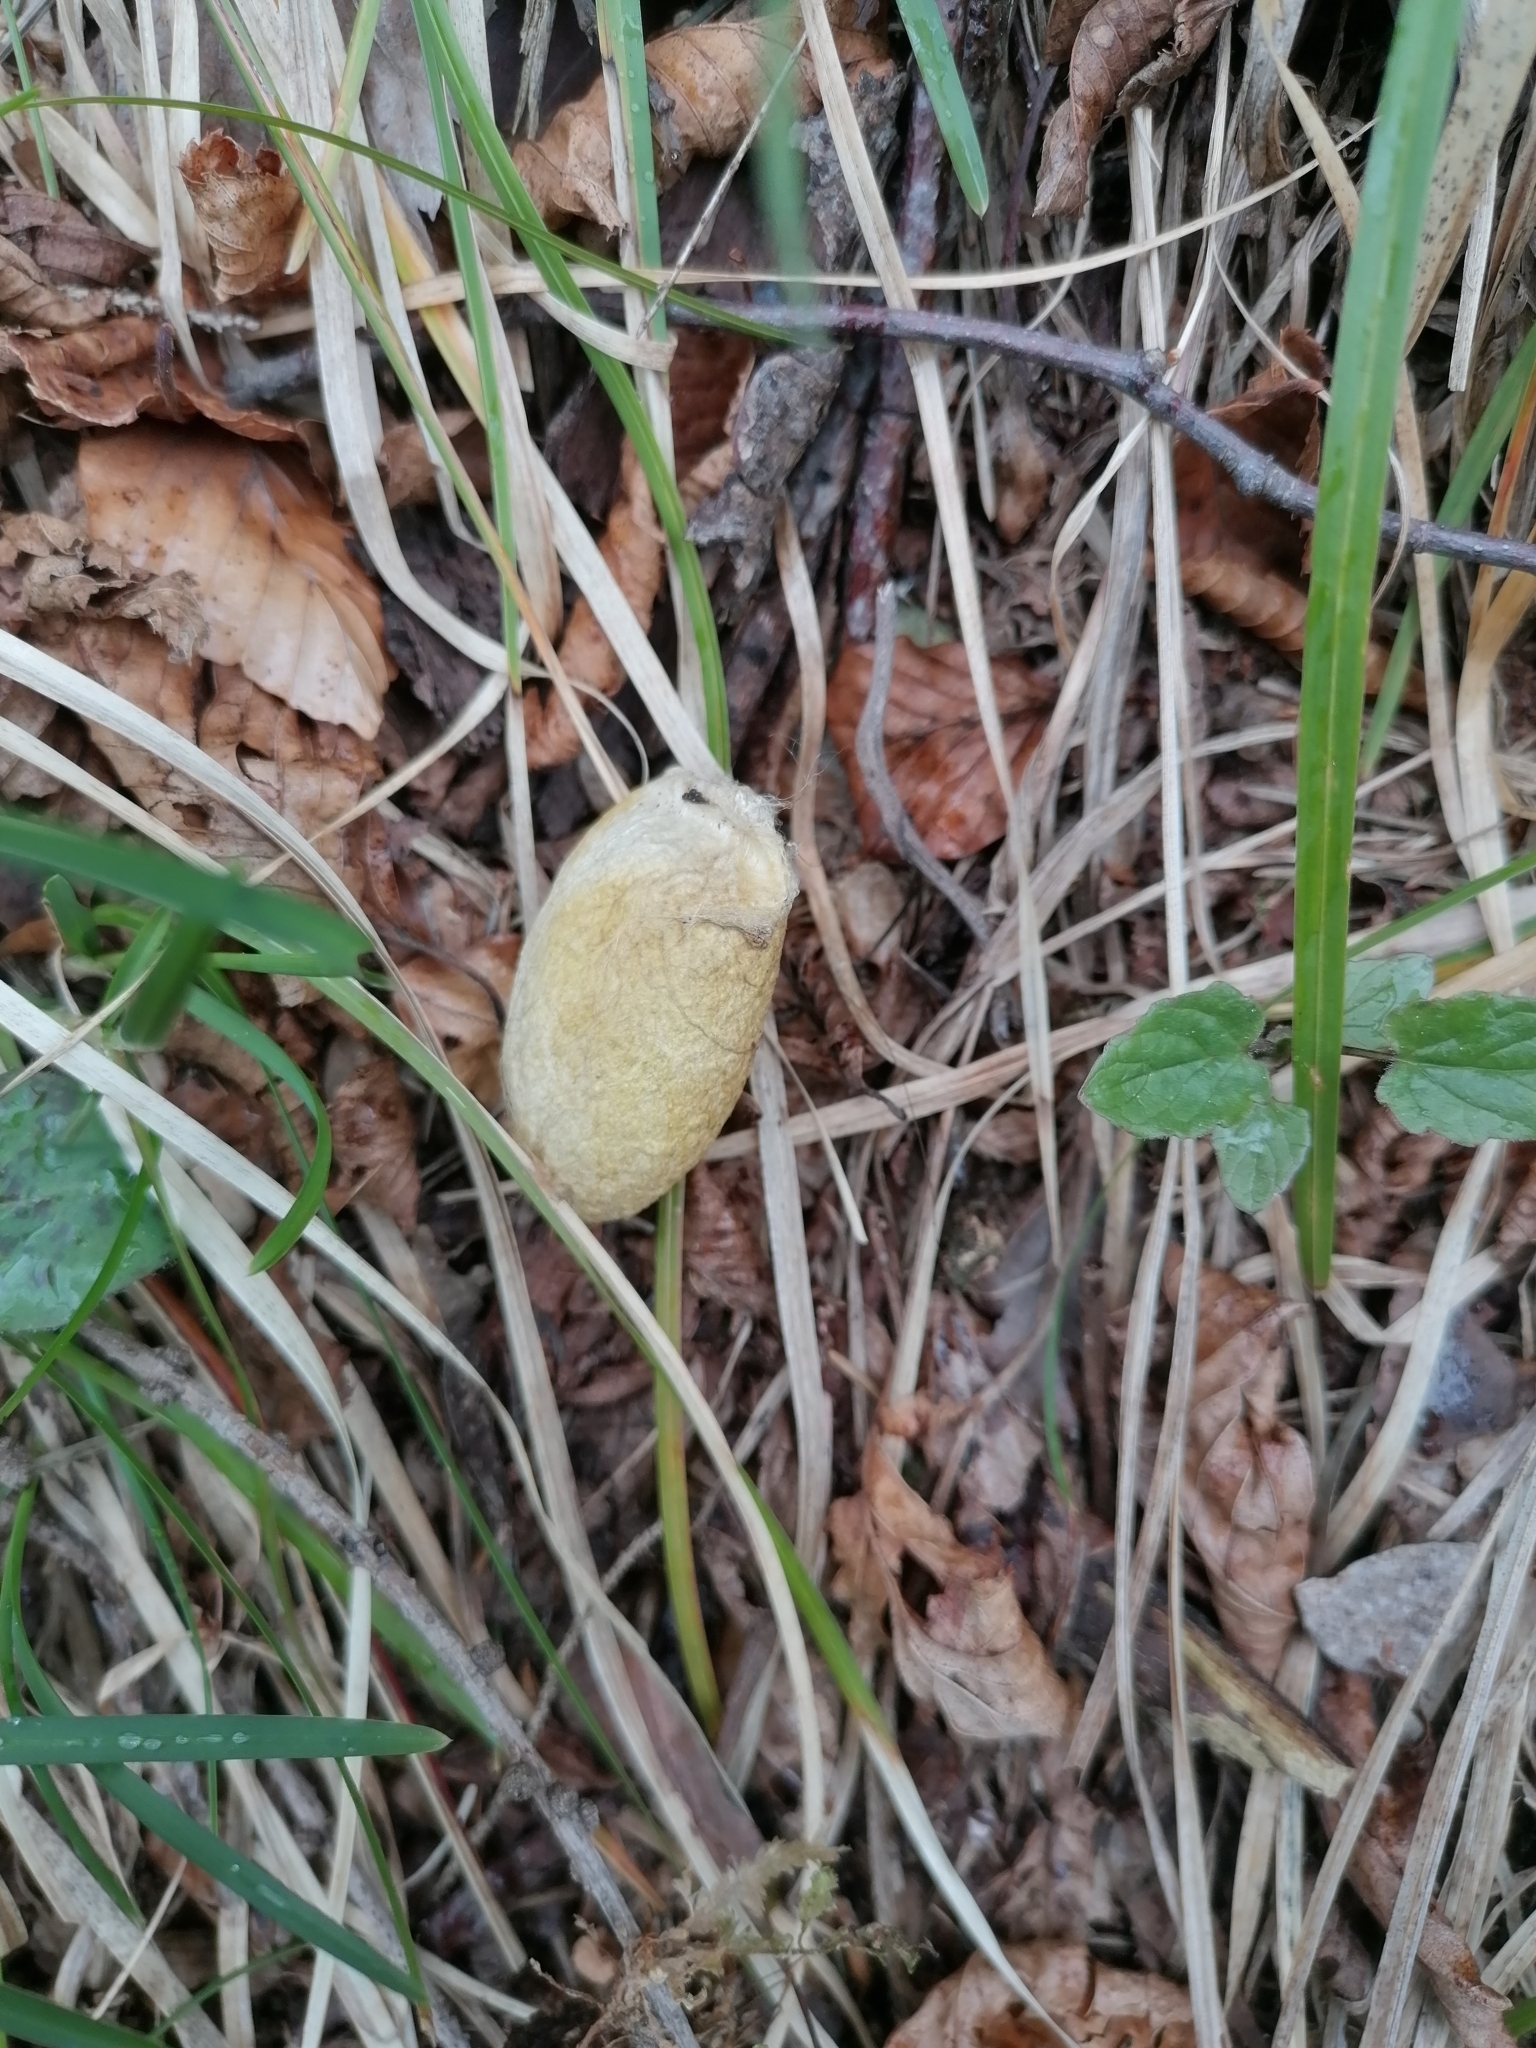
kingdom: Animalia
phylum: Arthropoda
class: Insecta
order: Lepidoptera
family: Saturniidae
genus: Antheraea
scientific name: Antheraea yamamai
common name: Japanese oak silk moth
